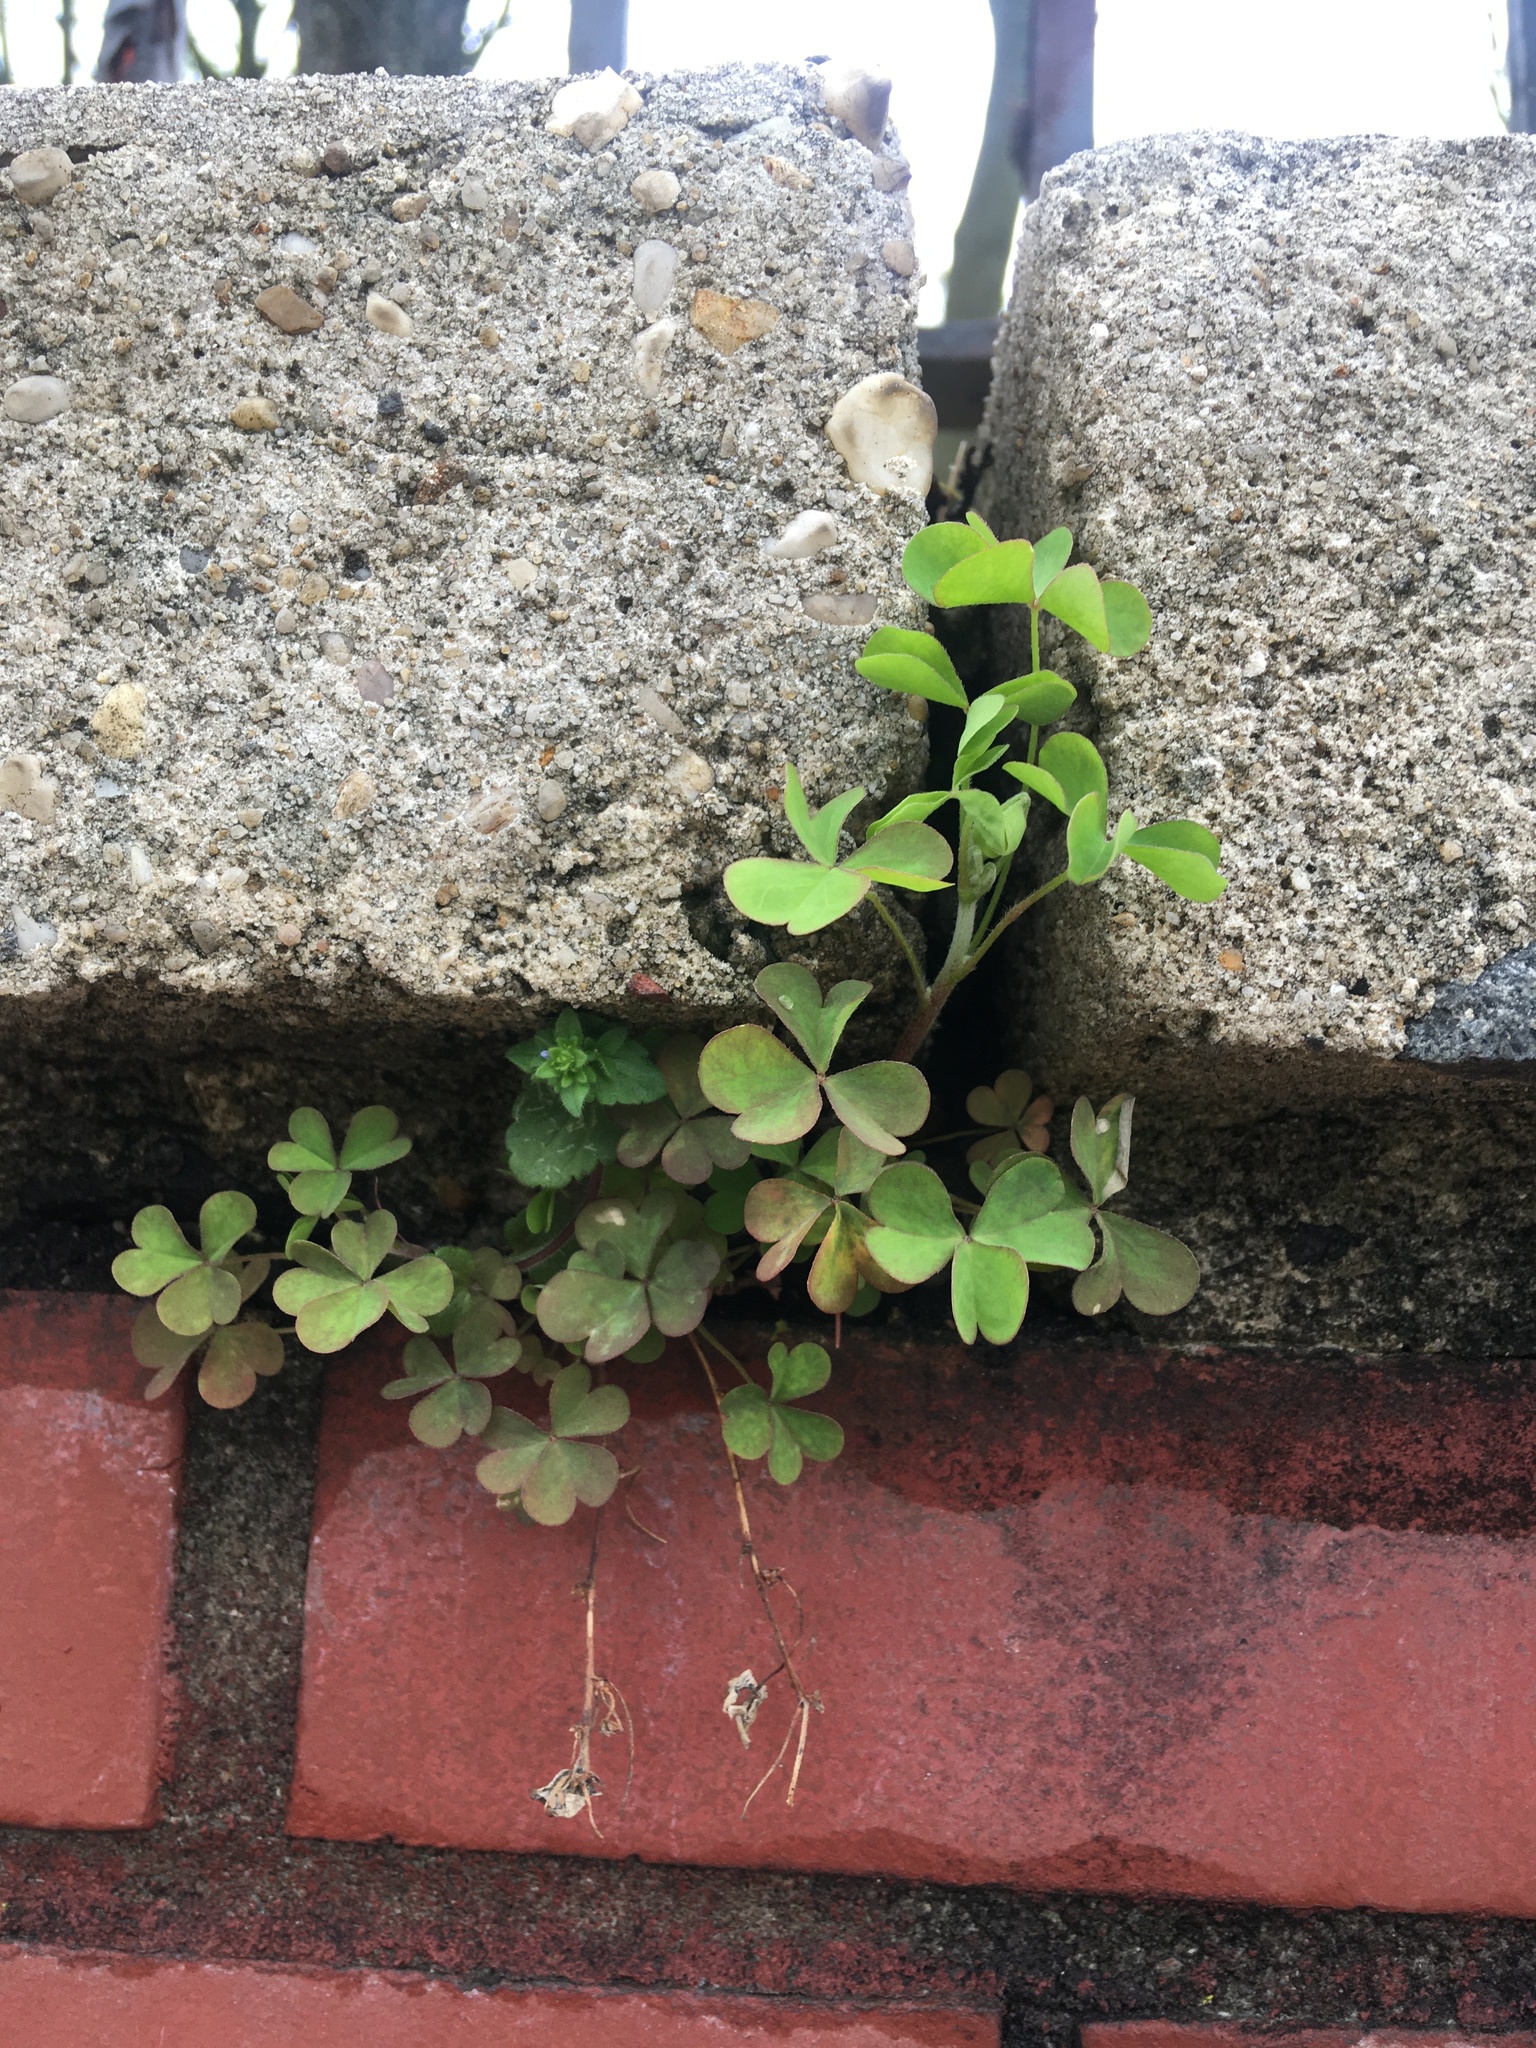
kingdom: Plantae
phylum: Tracheophyta
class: Magnoliopsida
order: Oxalidales
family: Oxalidaceae
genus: Oxalis
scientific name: Oxalis corniculata
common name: Procumbent yellow-sorrel
